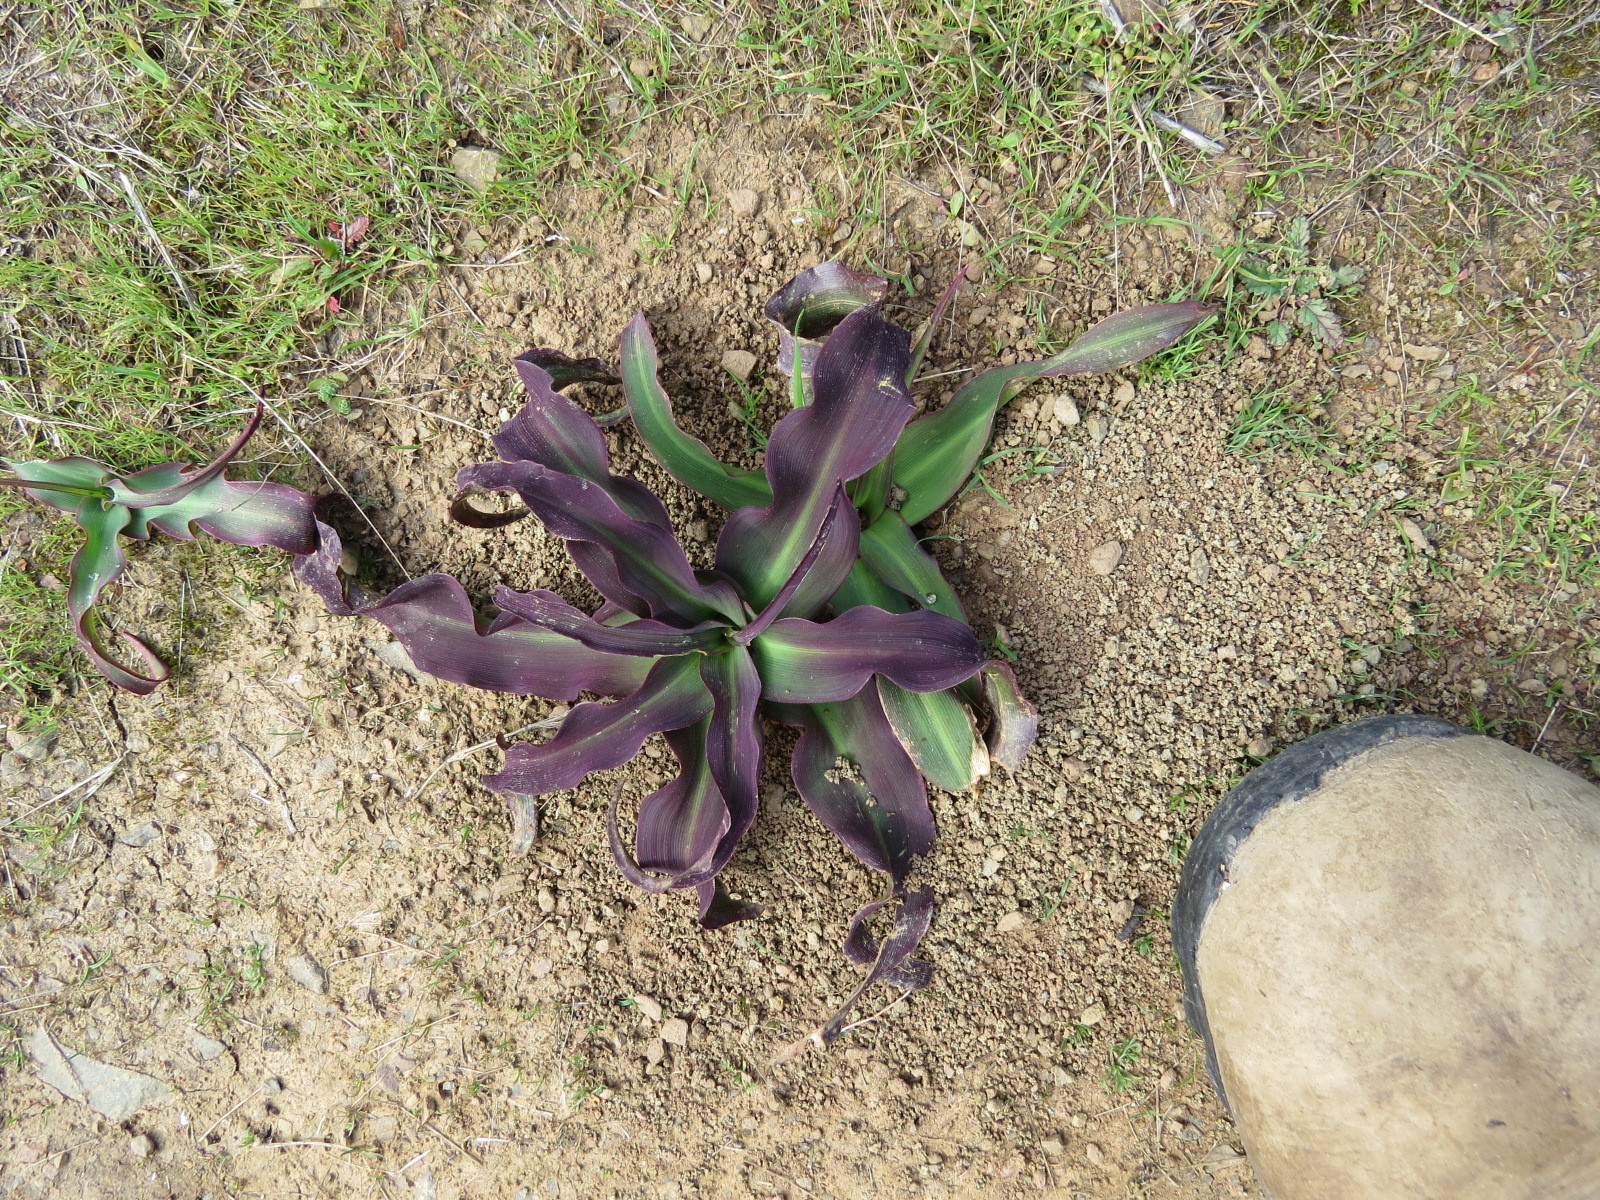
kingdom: Plantae
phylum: Tracheophyta
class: Liliopsida
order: Asparagales
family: Asparagaceae
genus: Chlorogalum
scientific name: Chlorogalum pomeridianum
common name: Amole
